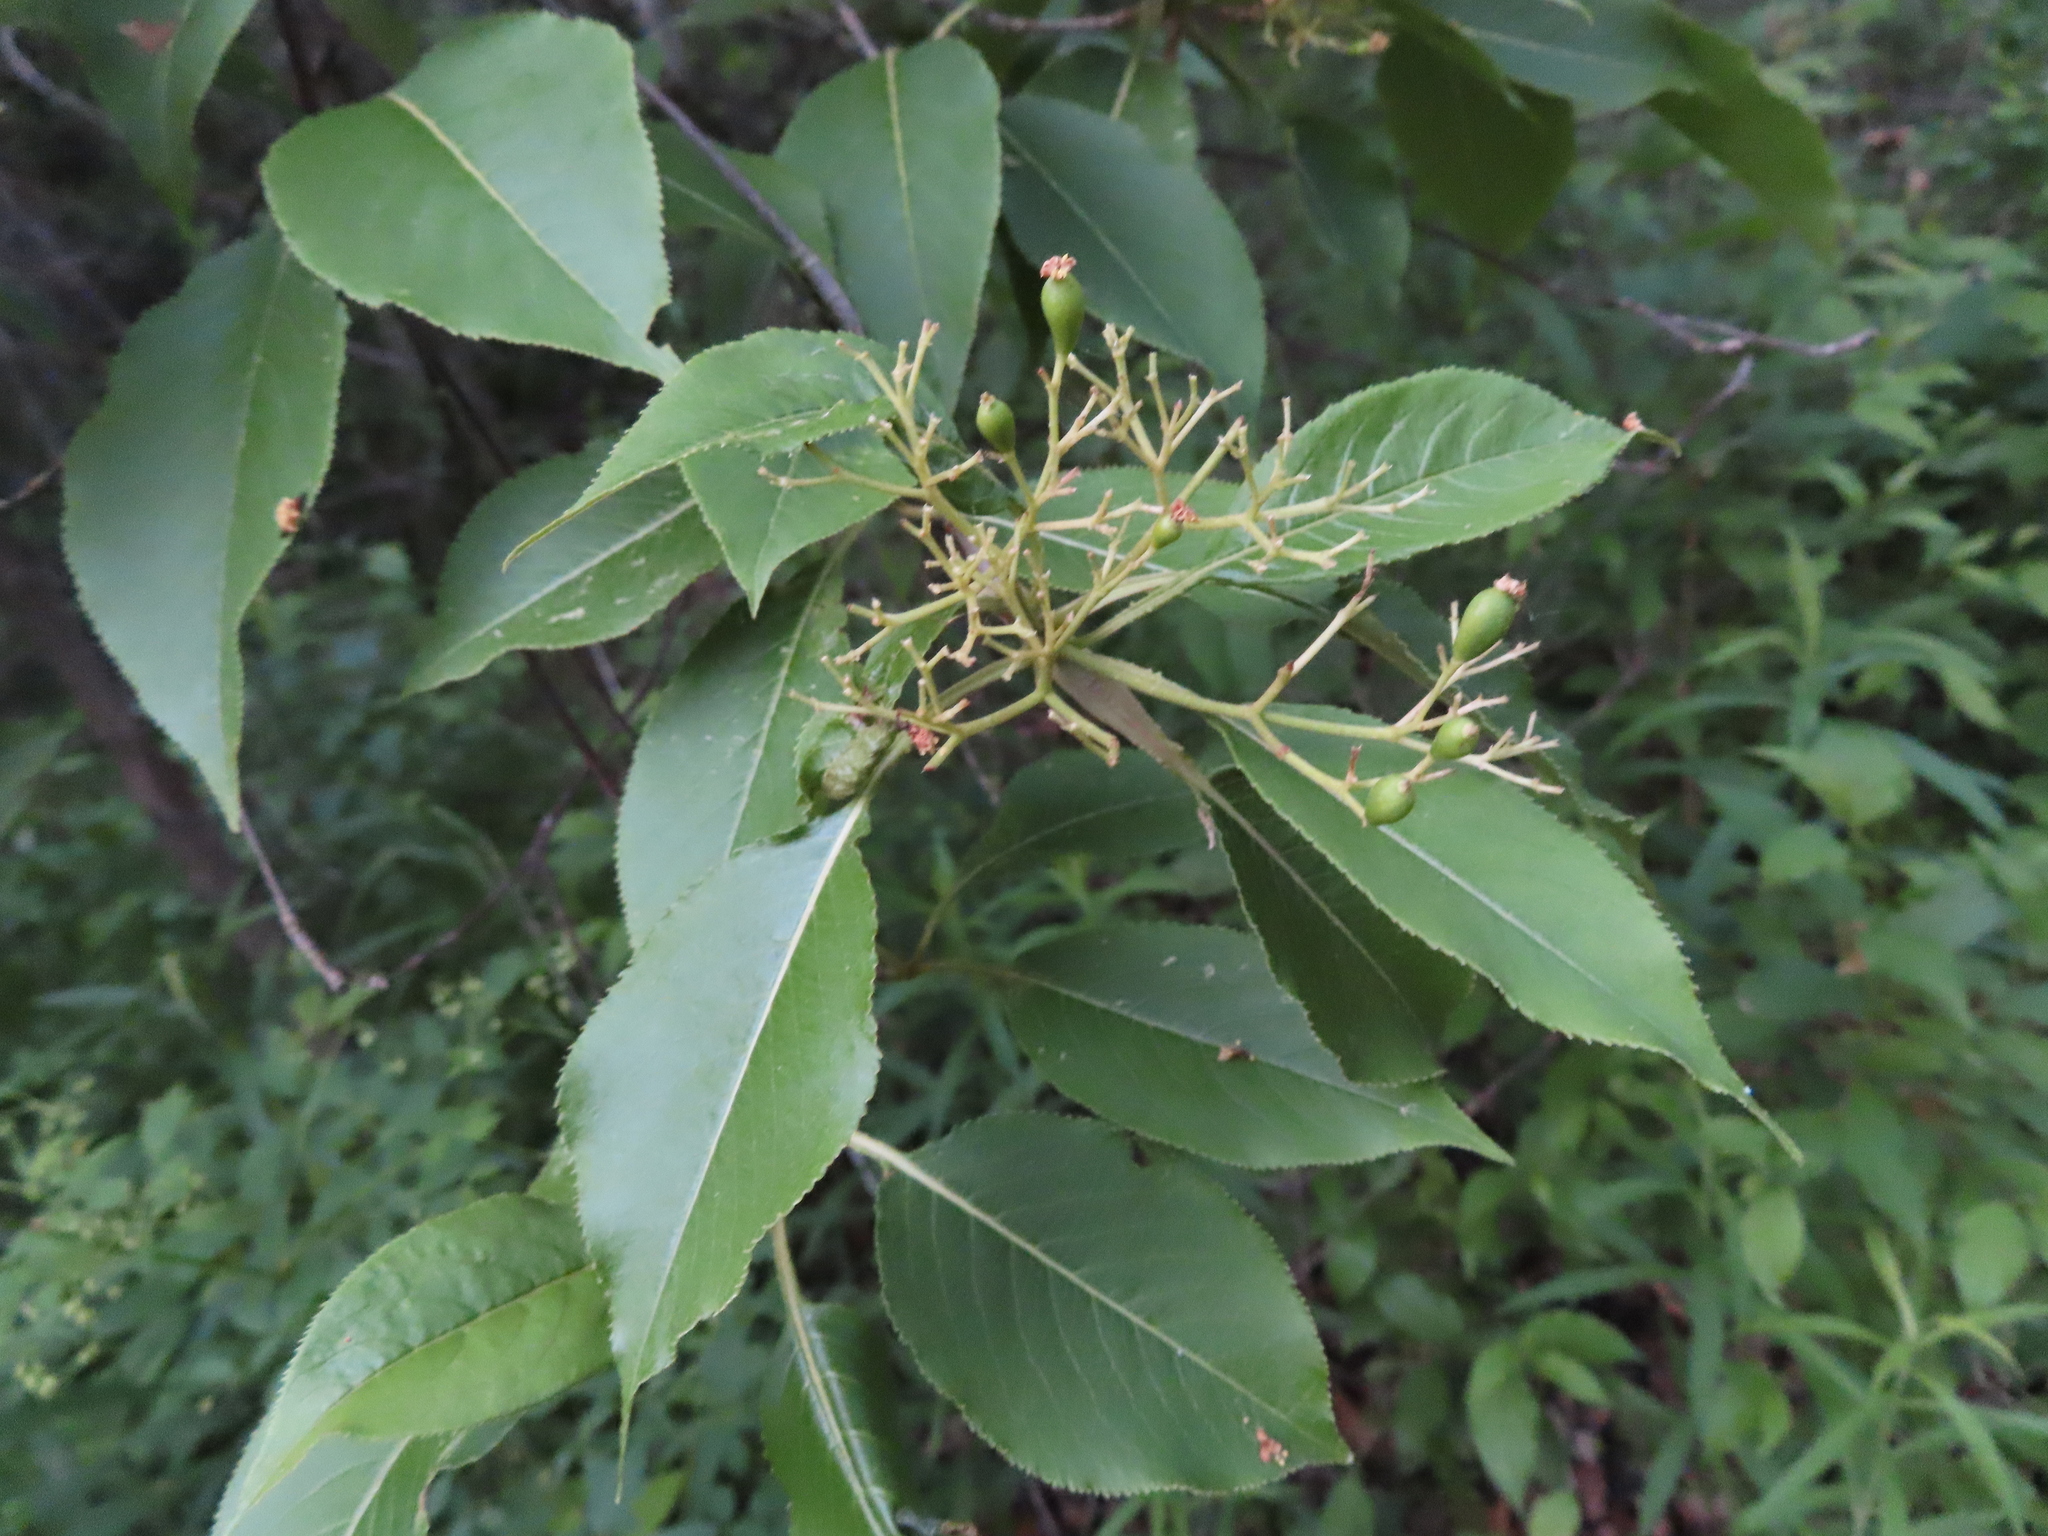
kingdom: Plantae
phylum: Tracheophyta
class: Magnoliopsida
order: Dipsacales
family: Viburnaceae
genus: Viburnum
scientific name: Viburnum lentago
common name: Black haw
